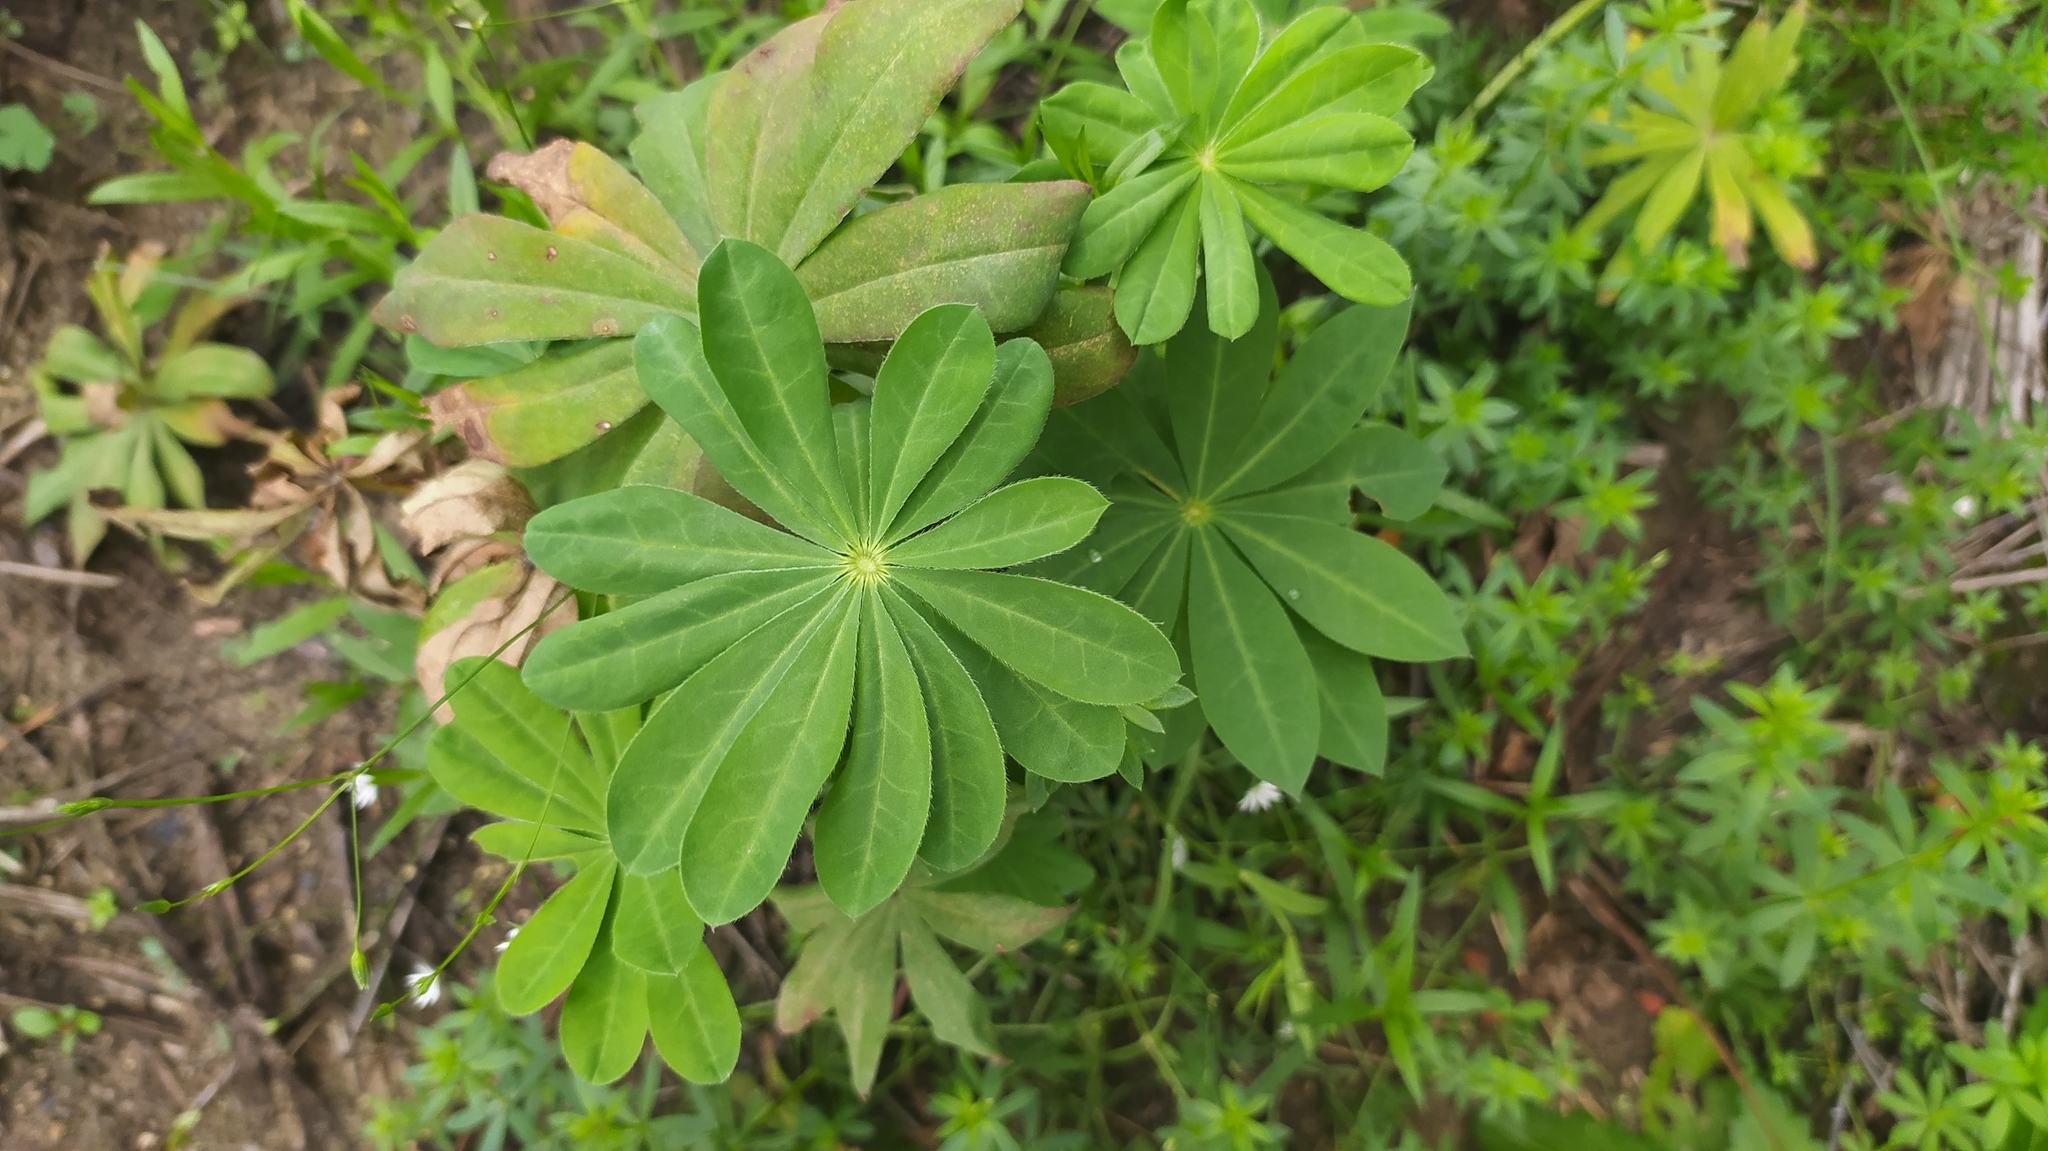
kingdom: Plantae
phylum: Tracheophyta
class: Magnoliopsida
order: Fabales
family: Fabaceae
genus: Lupinus
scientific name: Lupinus polyphyllus
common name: Garden lupin
